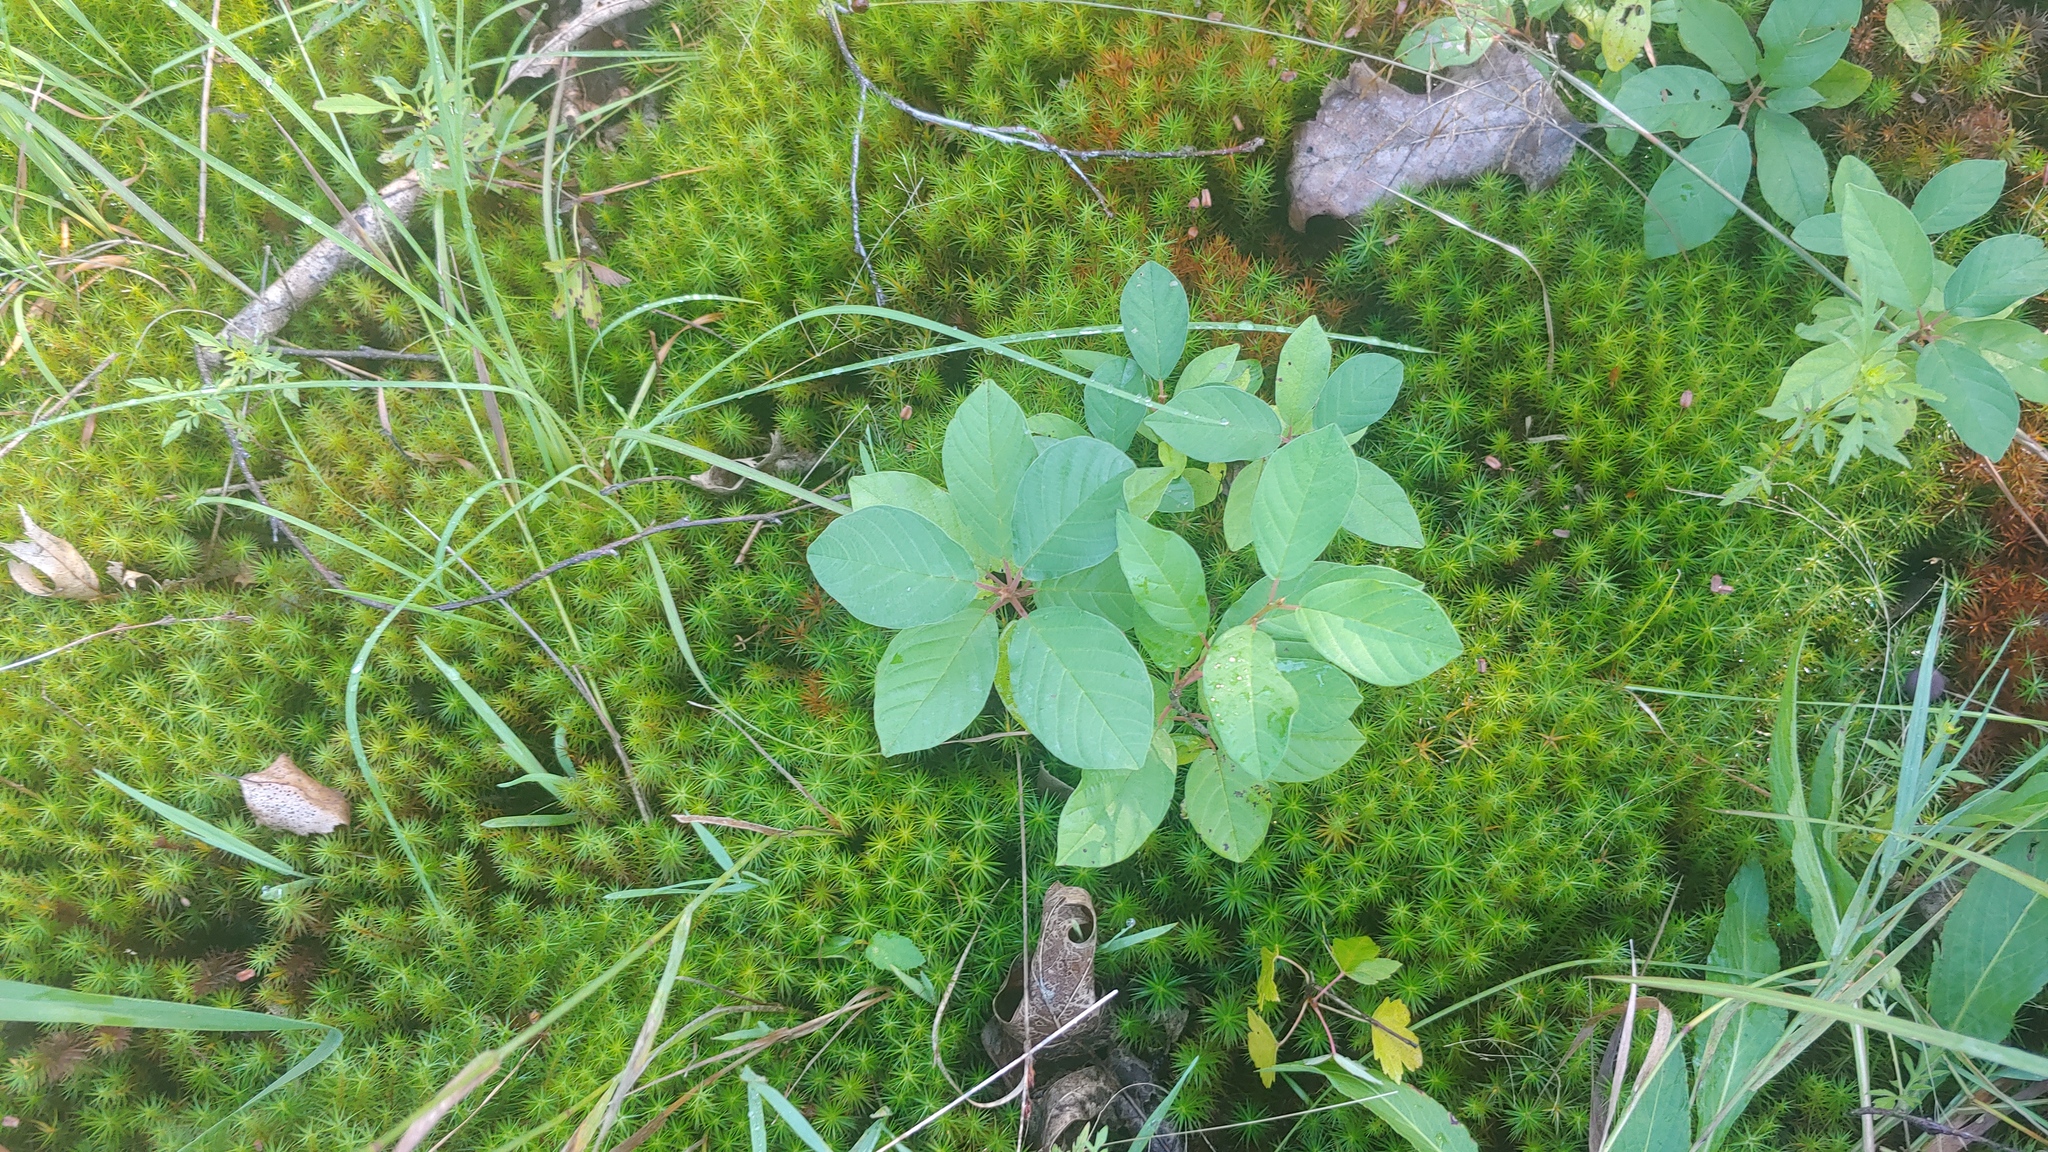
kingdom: Plantae
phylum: Tracheophyta
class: Magnoliopsida
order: Rosales
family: Rhamnaceae
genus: Frangula
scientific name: Frangula alnus
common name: Alder buckthorn
